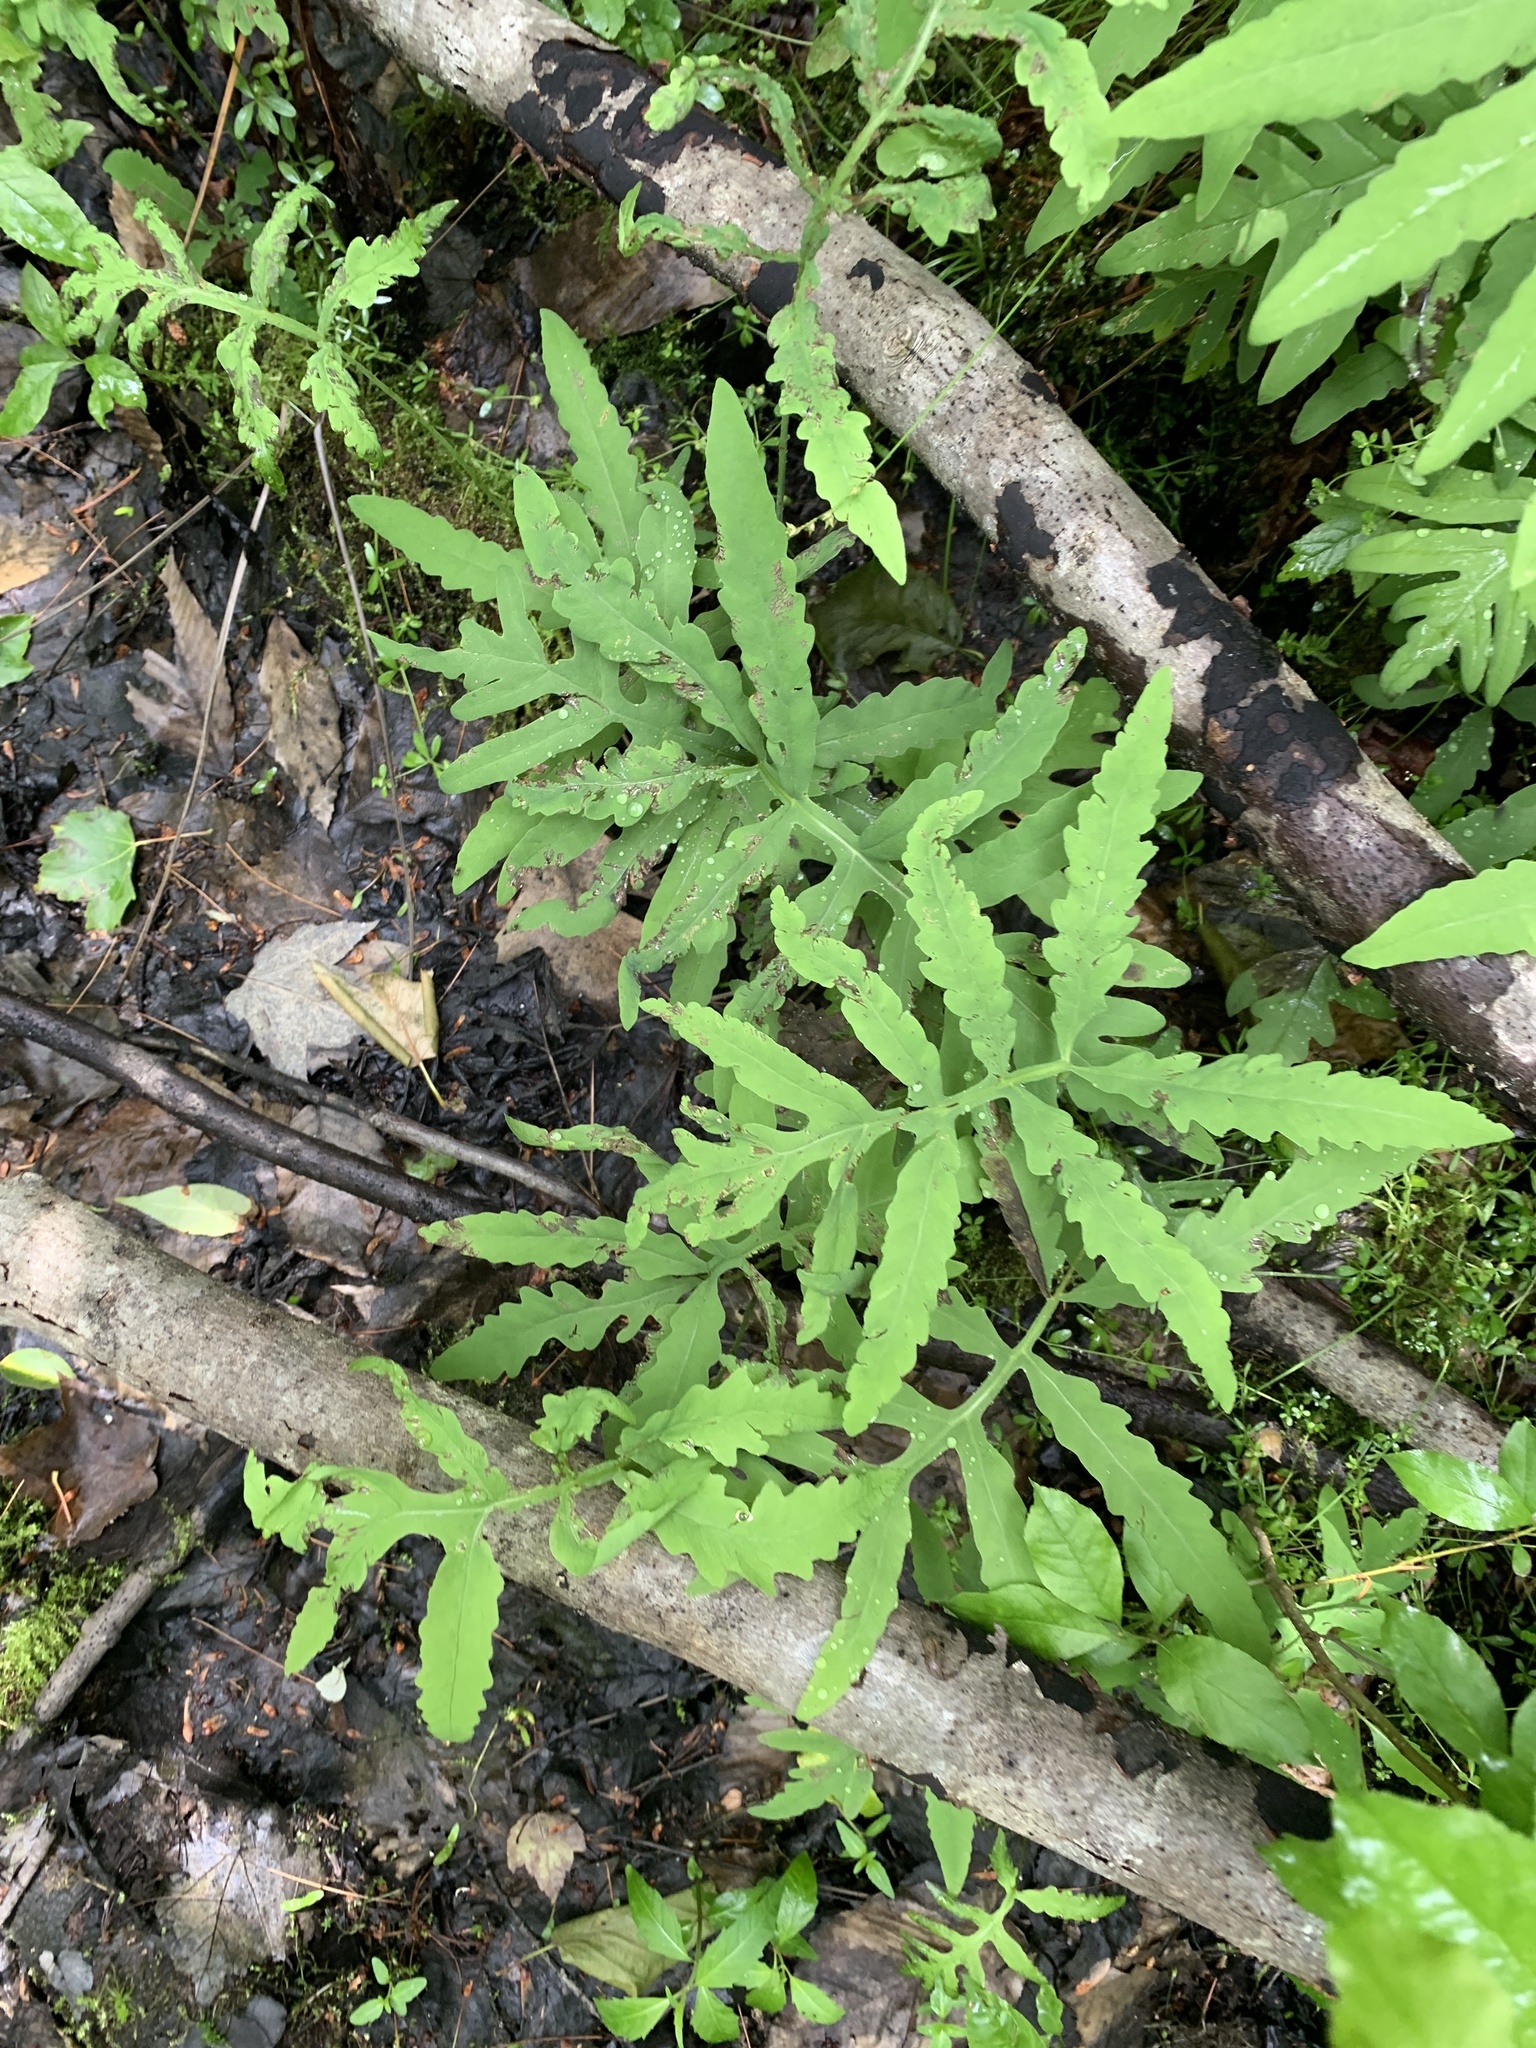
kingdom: Plantae
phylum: Tracheophyta
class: Polypodiopsida
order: Polypodiales
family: Onocleaceae
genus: Onoclea
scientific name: Onoclea sensibilis
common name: Sensitive fern
